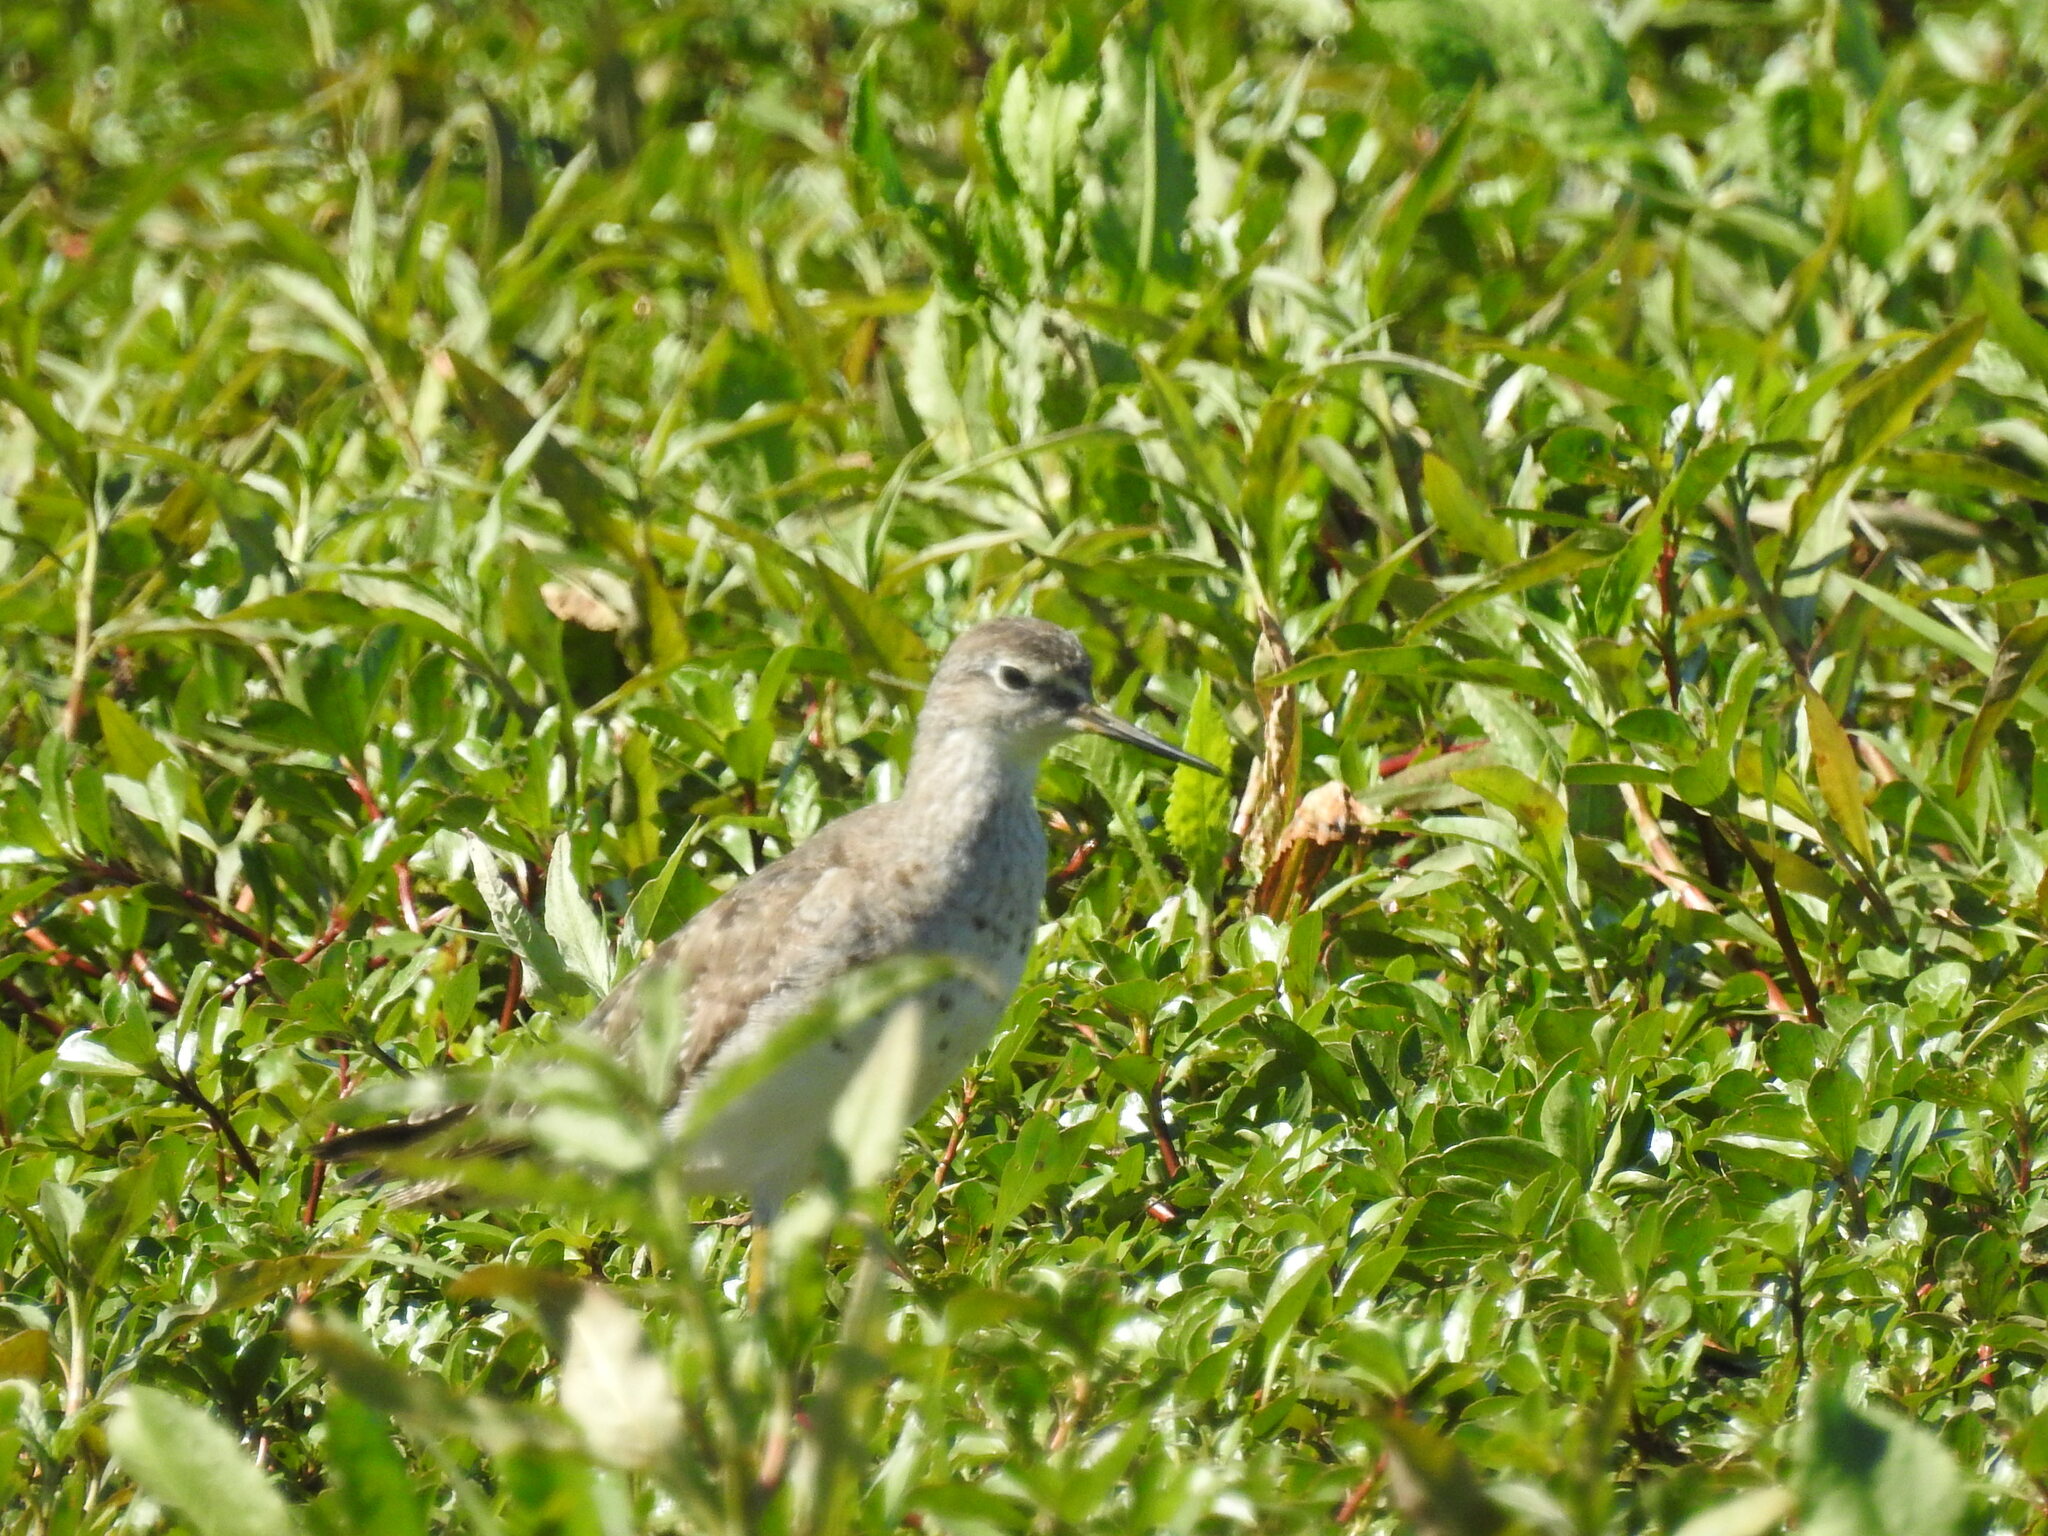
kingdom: Animalia
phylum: Chordata
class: Aves
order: Charadriiformes
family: Scolopacidae
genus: Tringa
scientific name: Tringa flavipes
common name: Lesser yellowlegs
